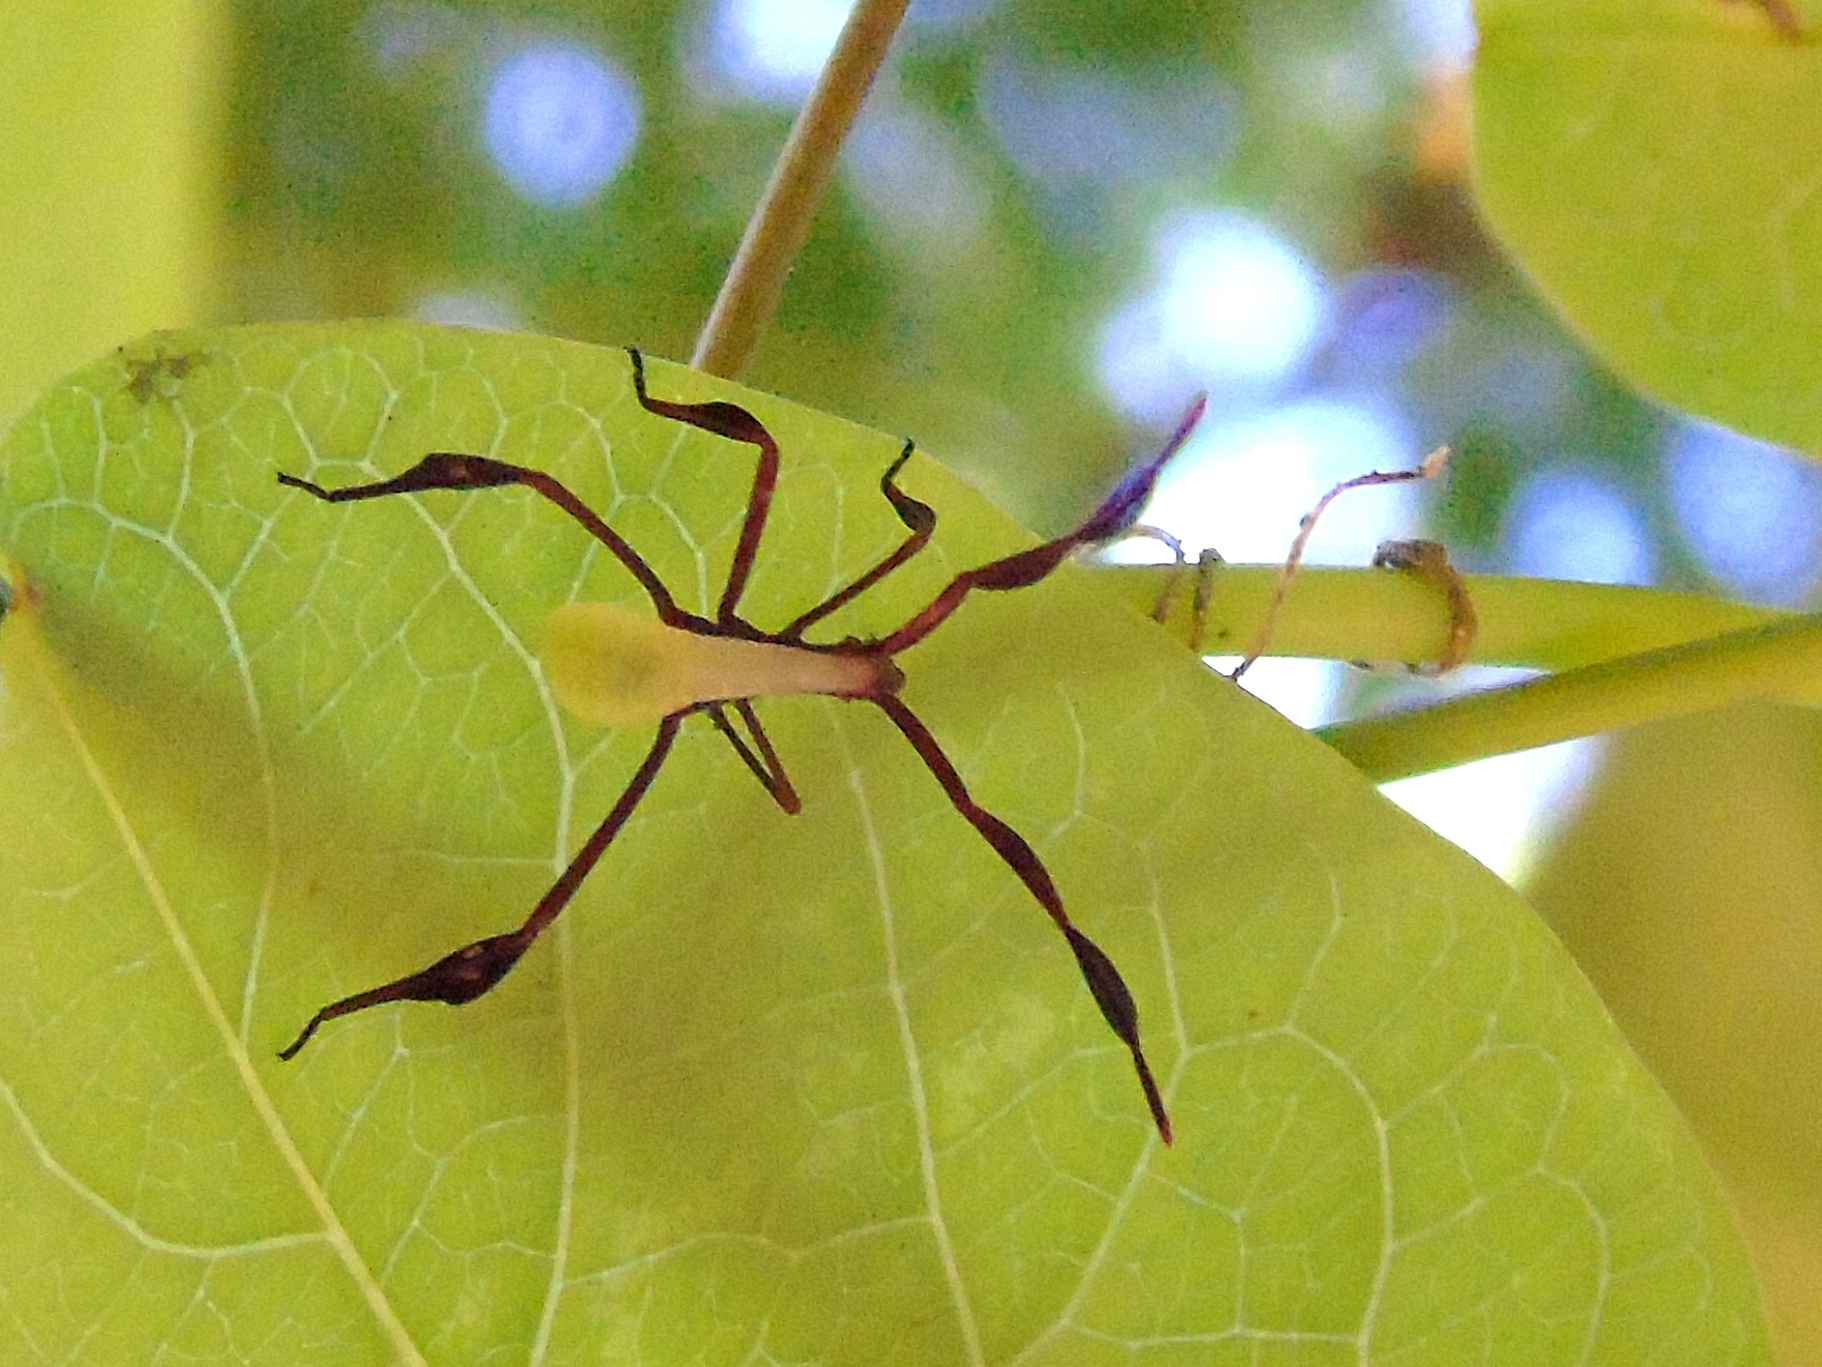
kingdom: Animalia
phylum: Arthropoda
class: Insecta
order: Hemiptera
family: Coreidae
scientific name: Coreidae
